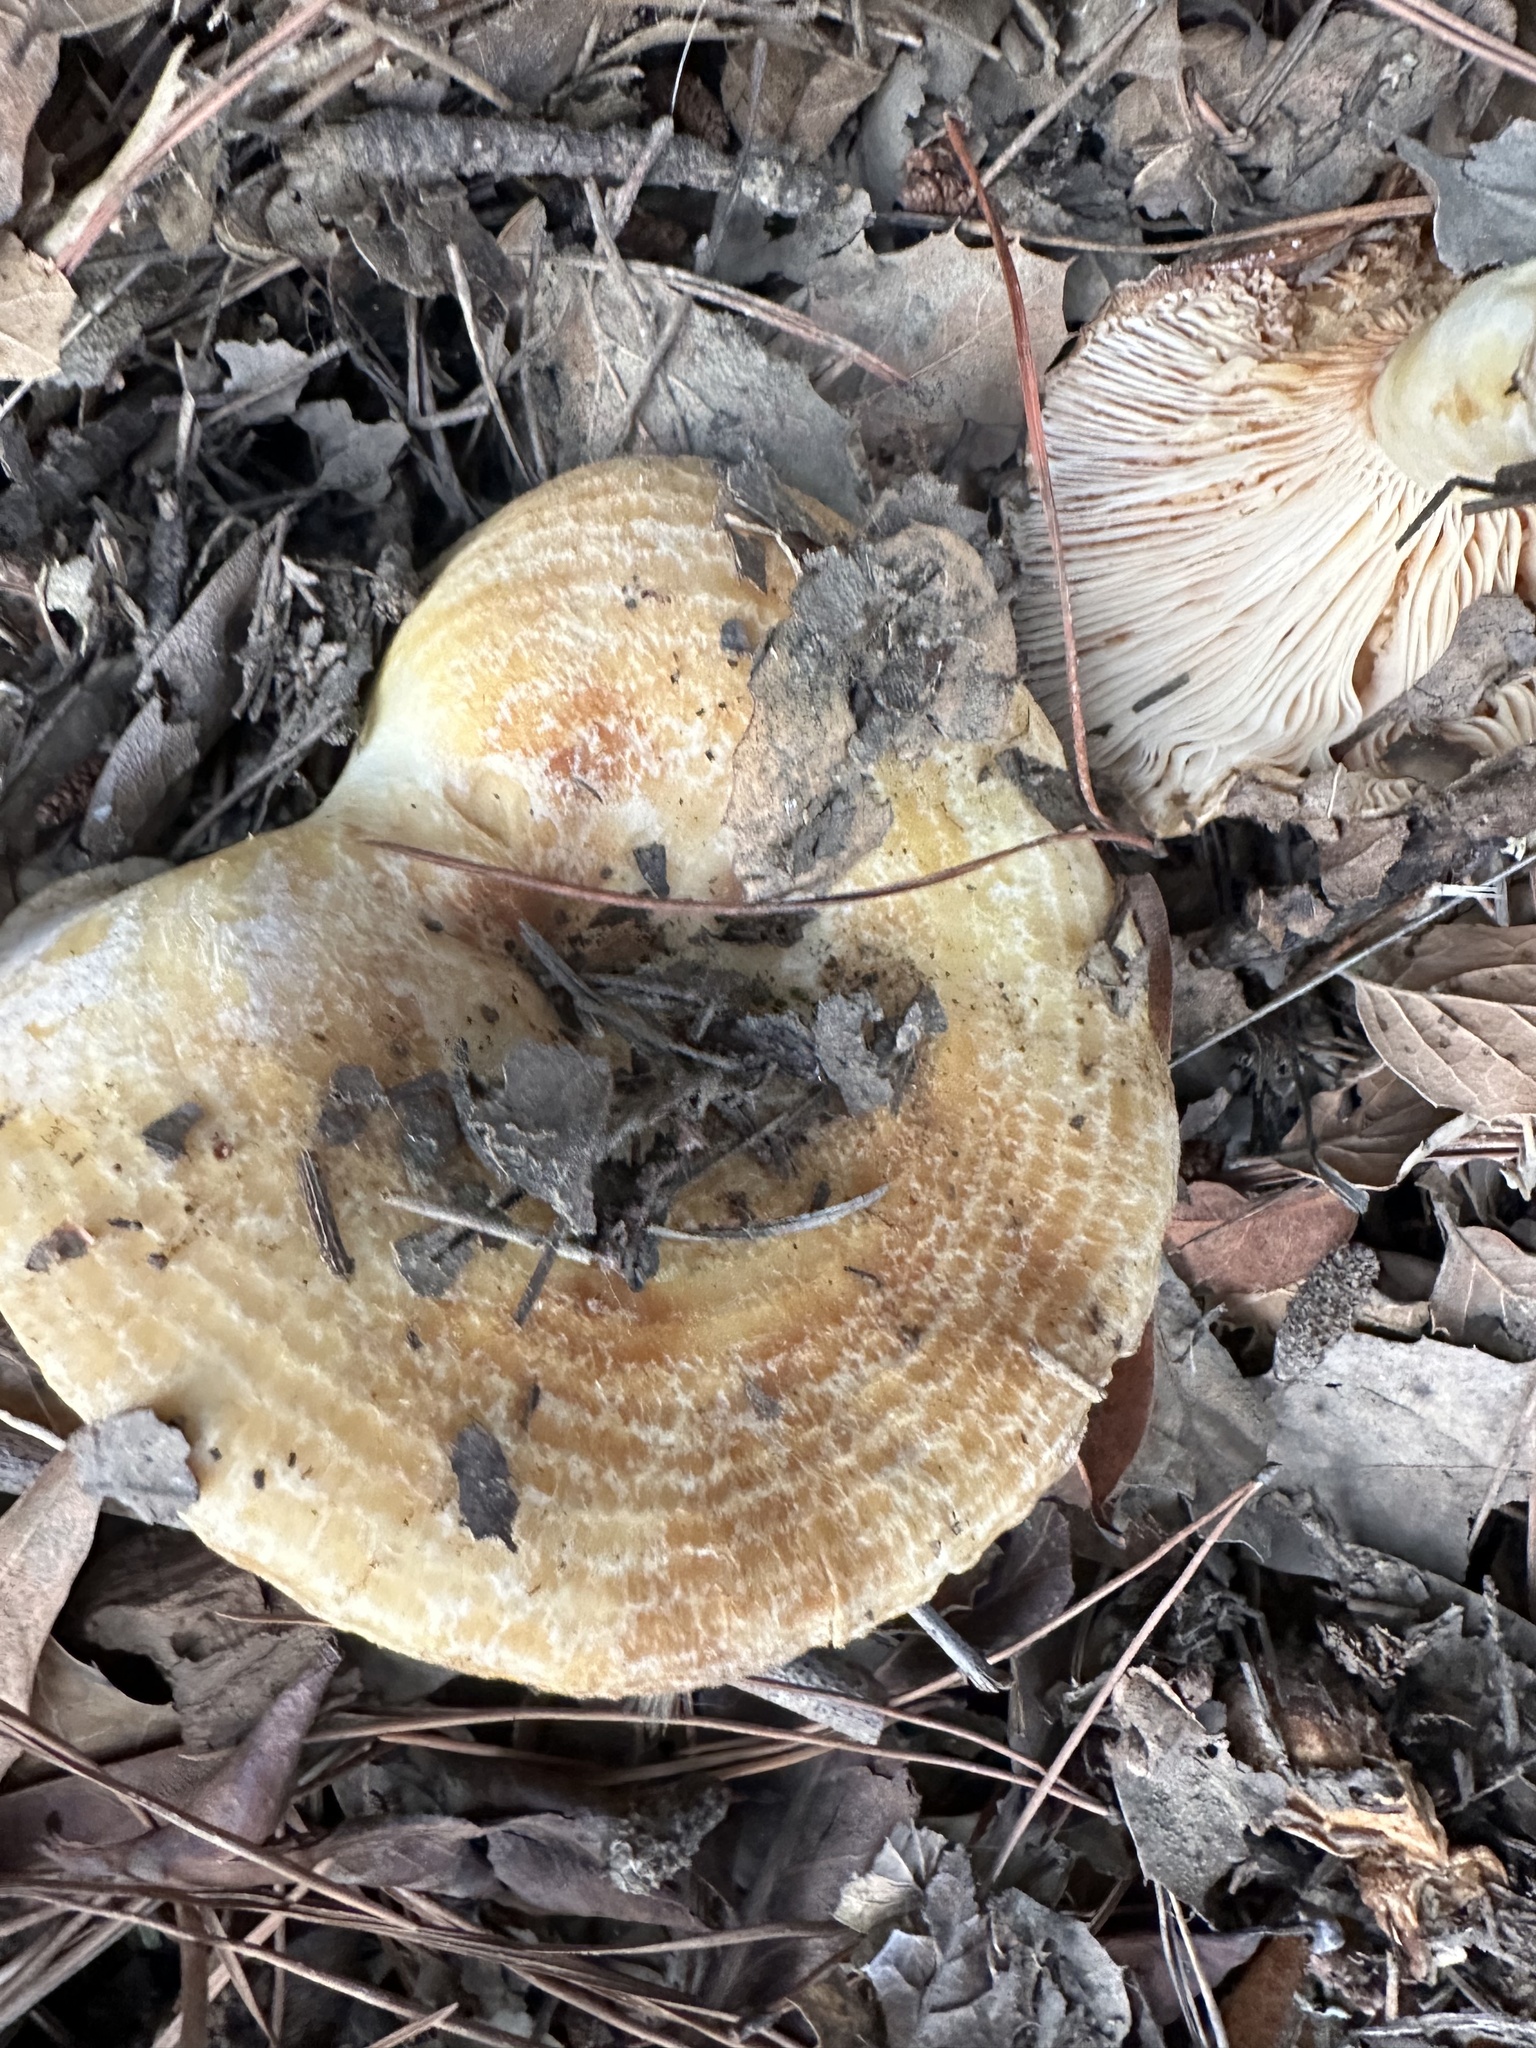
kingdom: Fungi
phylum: Basidiomycota
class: Agaricomycetes
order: Russulales
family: Russulaceae
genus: Lactarius
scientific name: Lactarius alnicola
